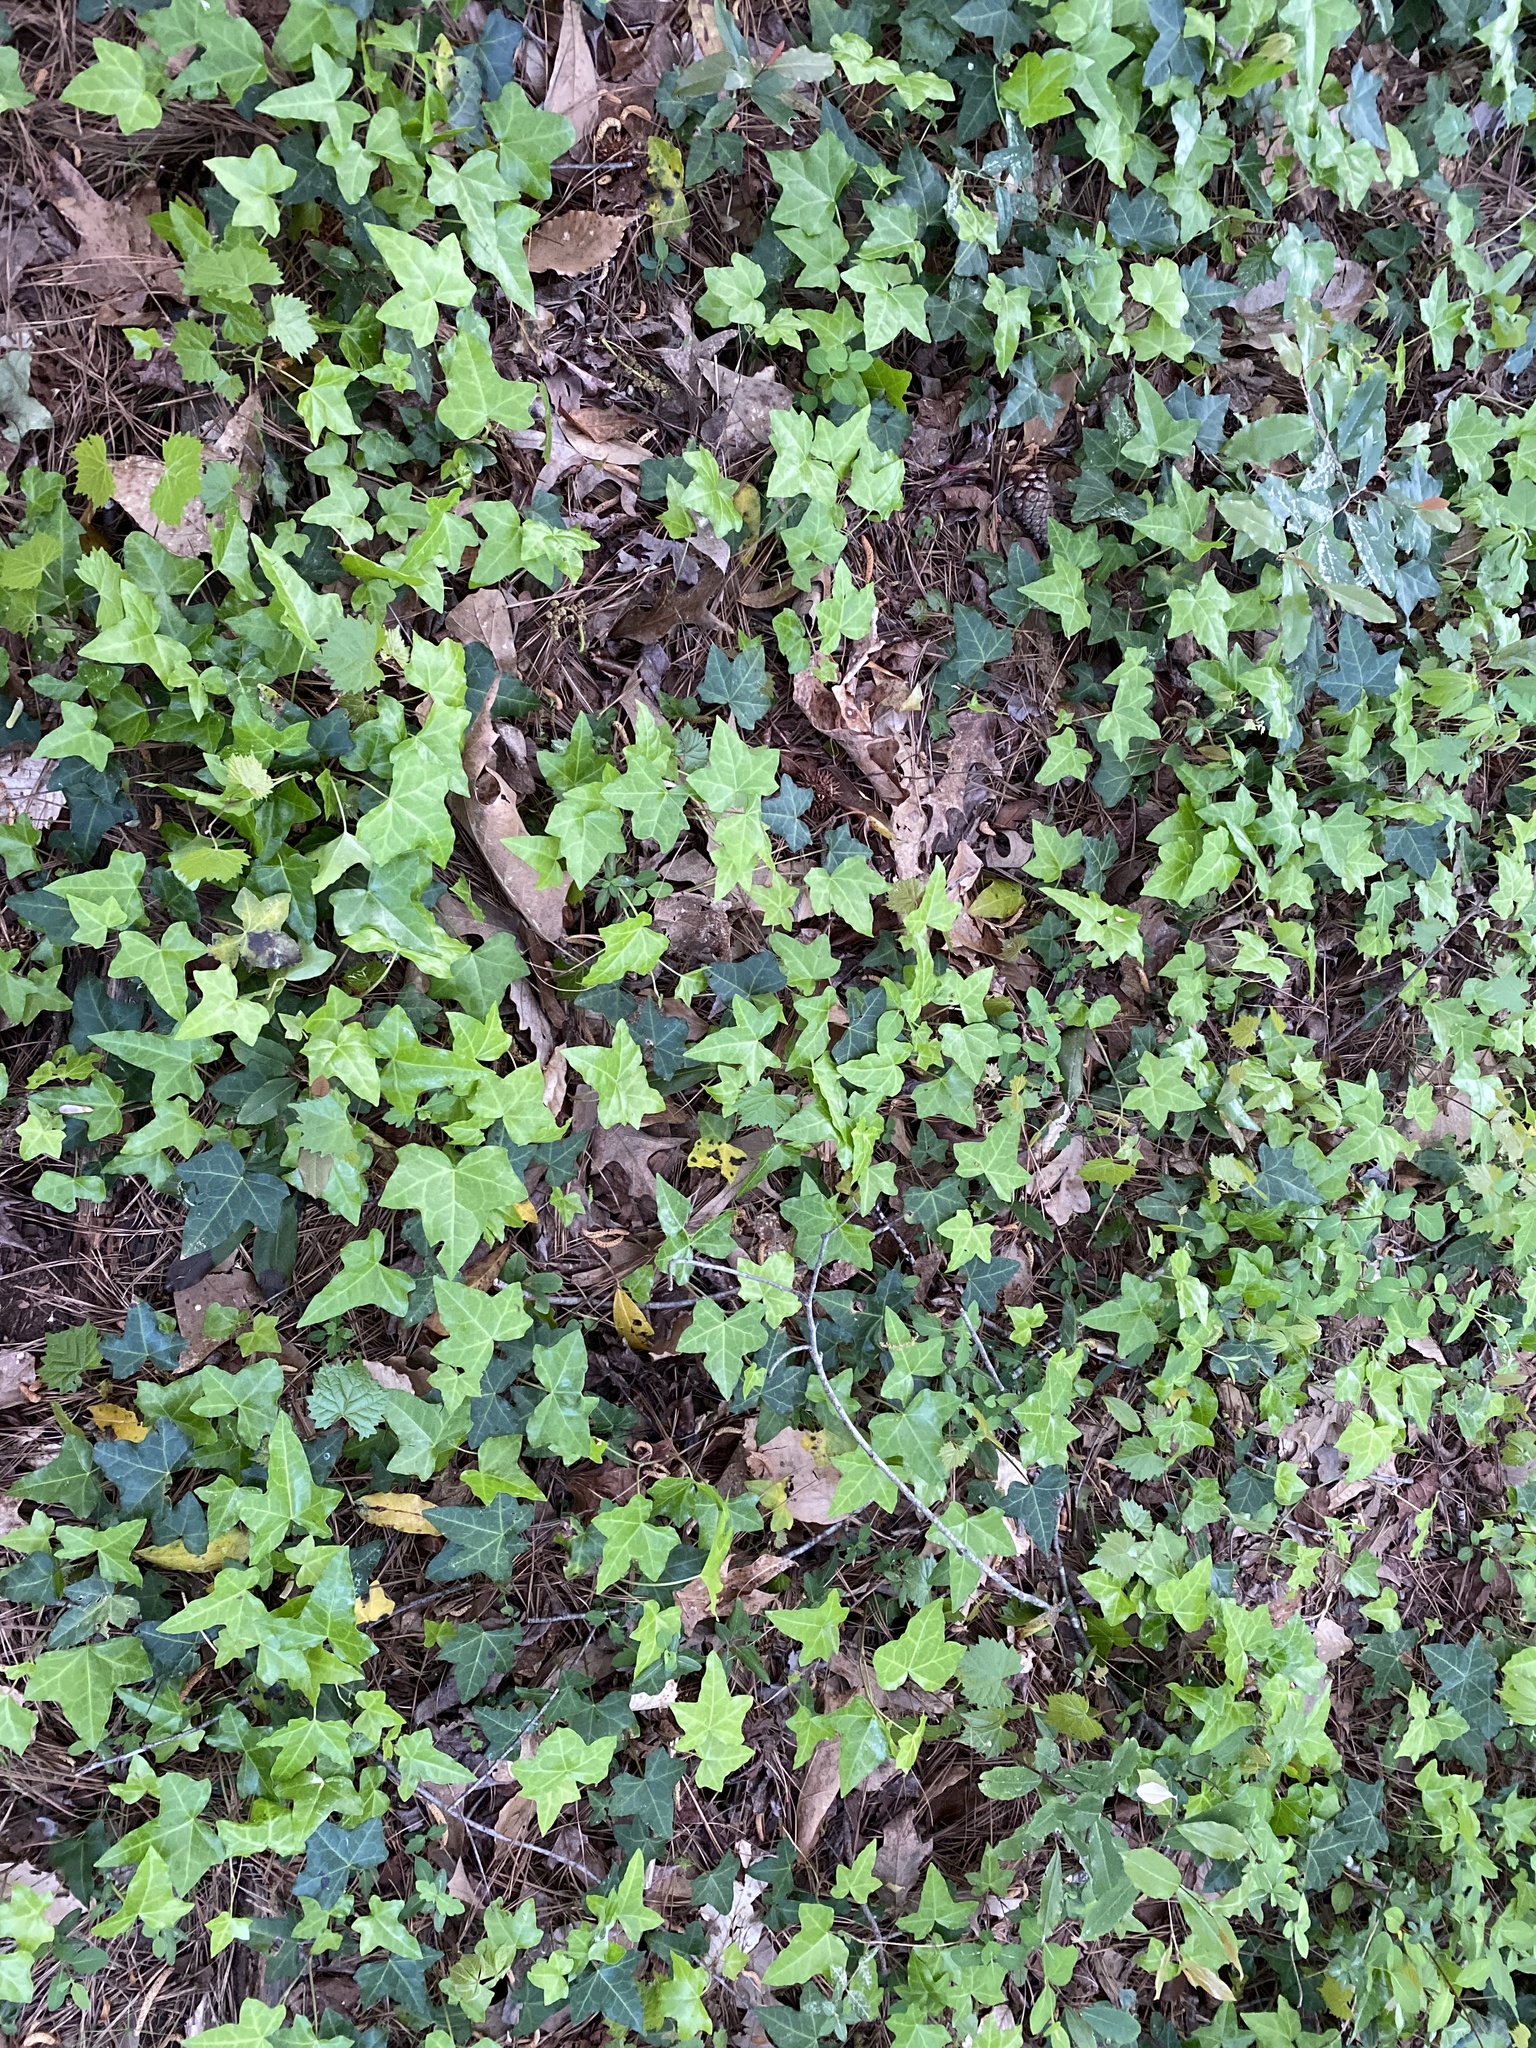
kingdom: Plantae
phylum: Tracheophyta
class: Magnoliopsida
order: Apiales
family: Araliaceae
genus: Hedera
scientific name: Hedera helix
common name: Ivy
